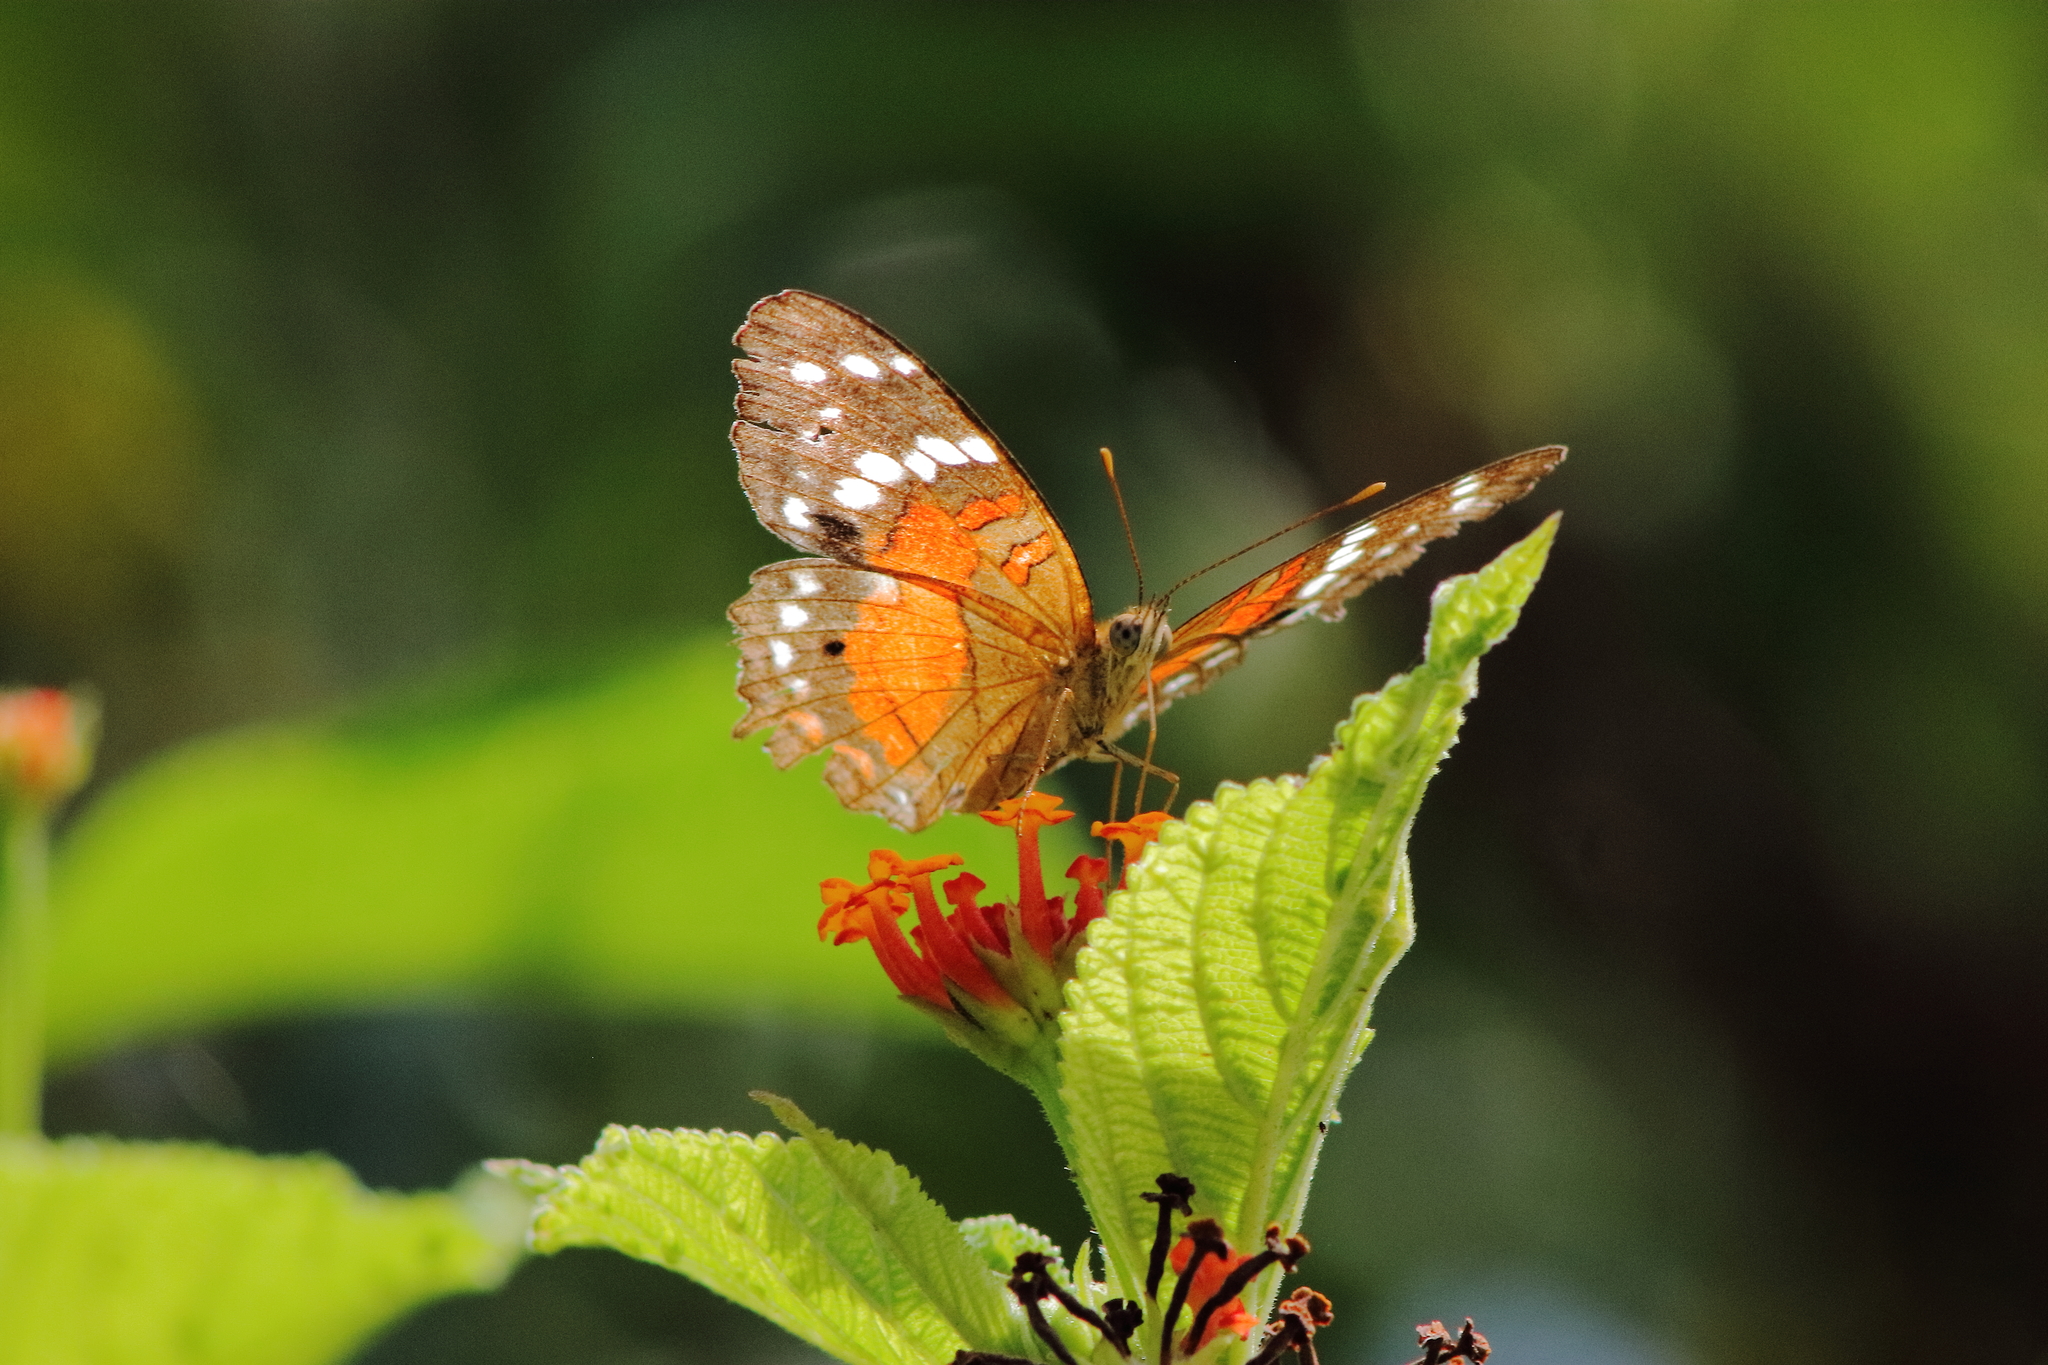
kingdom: Animalia
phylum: Arthropoda
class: Insecta
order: Lepidoptera
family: Nymphalidae
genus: Anartia
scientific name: Anartia amathea
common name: Red peacock
